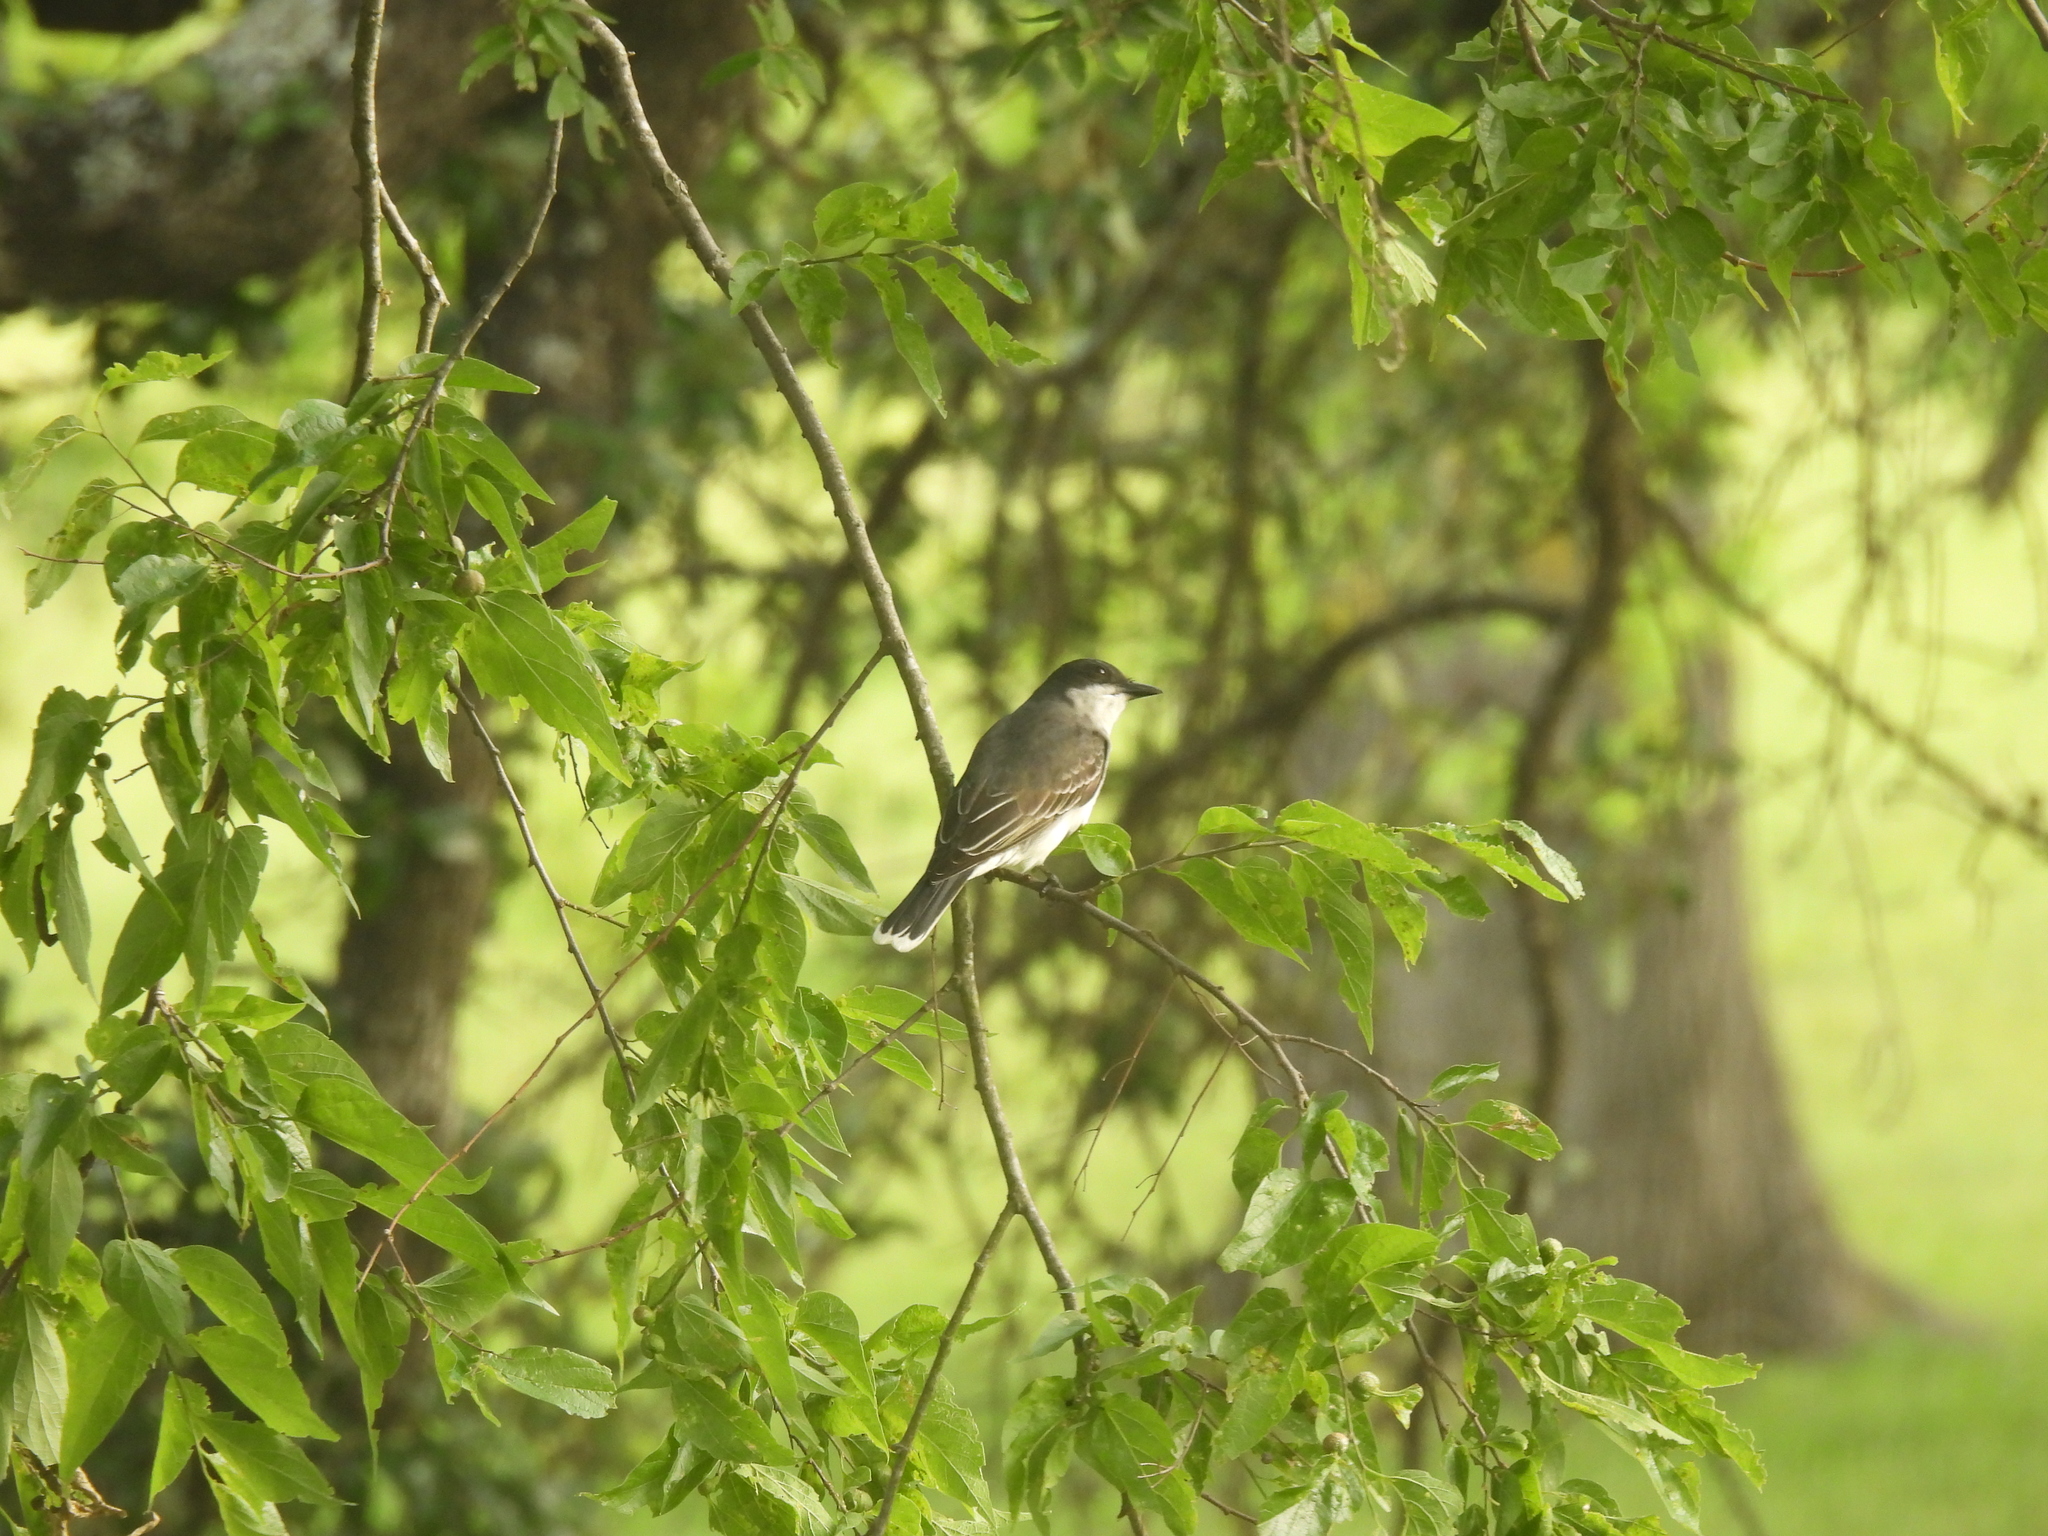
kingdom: Animalia
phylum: Chordata
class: Aves
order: Passeriformes
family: Tyrannidae
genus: Tyrannus
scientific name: Tyrannus tyrannus
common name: Eastern kingbird
